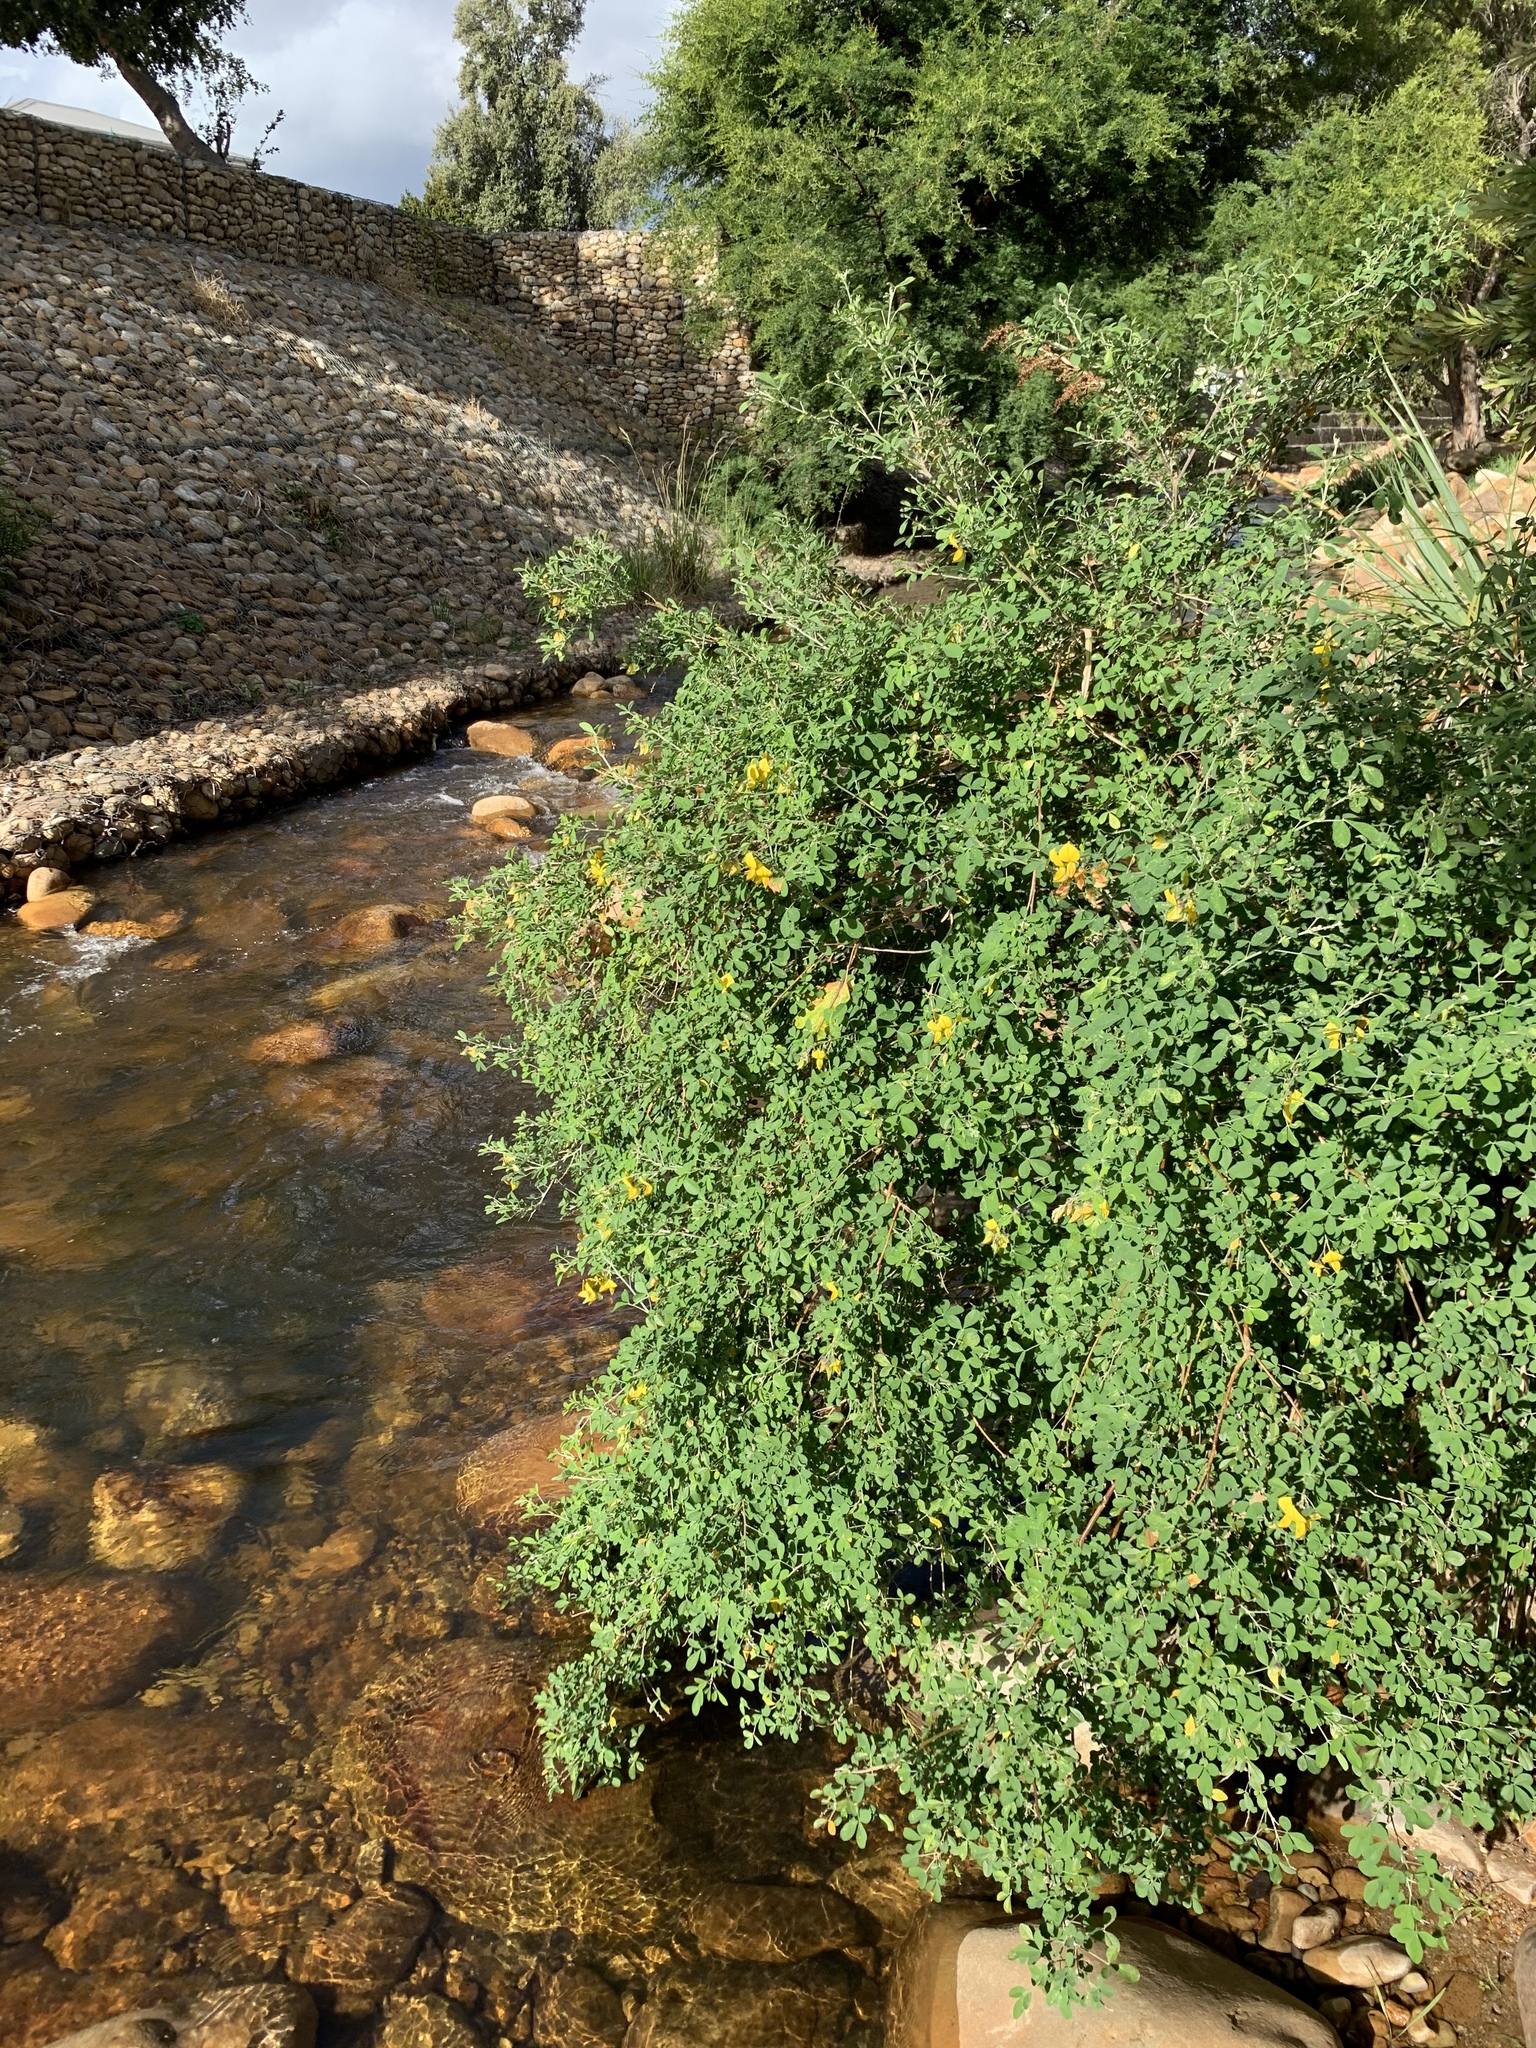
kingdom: Plantae
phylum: Tracheophyta
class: Magnoliopsida
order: Fabales
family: Fabaceae
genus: Crotalaria
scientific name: Crotalaria capensis
